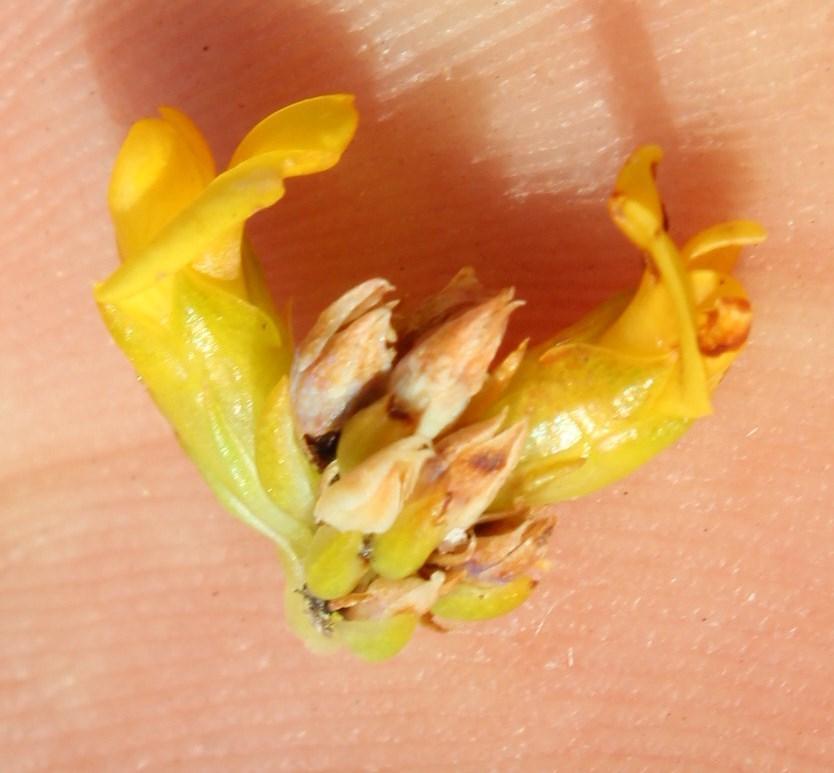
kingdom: Plantae
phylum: Tracheophyta
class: Magnoliopsida
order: Fabales
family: Fabaceae
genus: Aspalathus
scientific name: Aspalathus callosa
